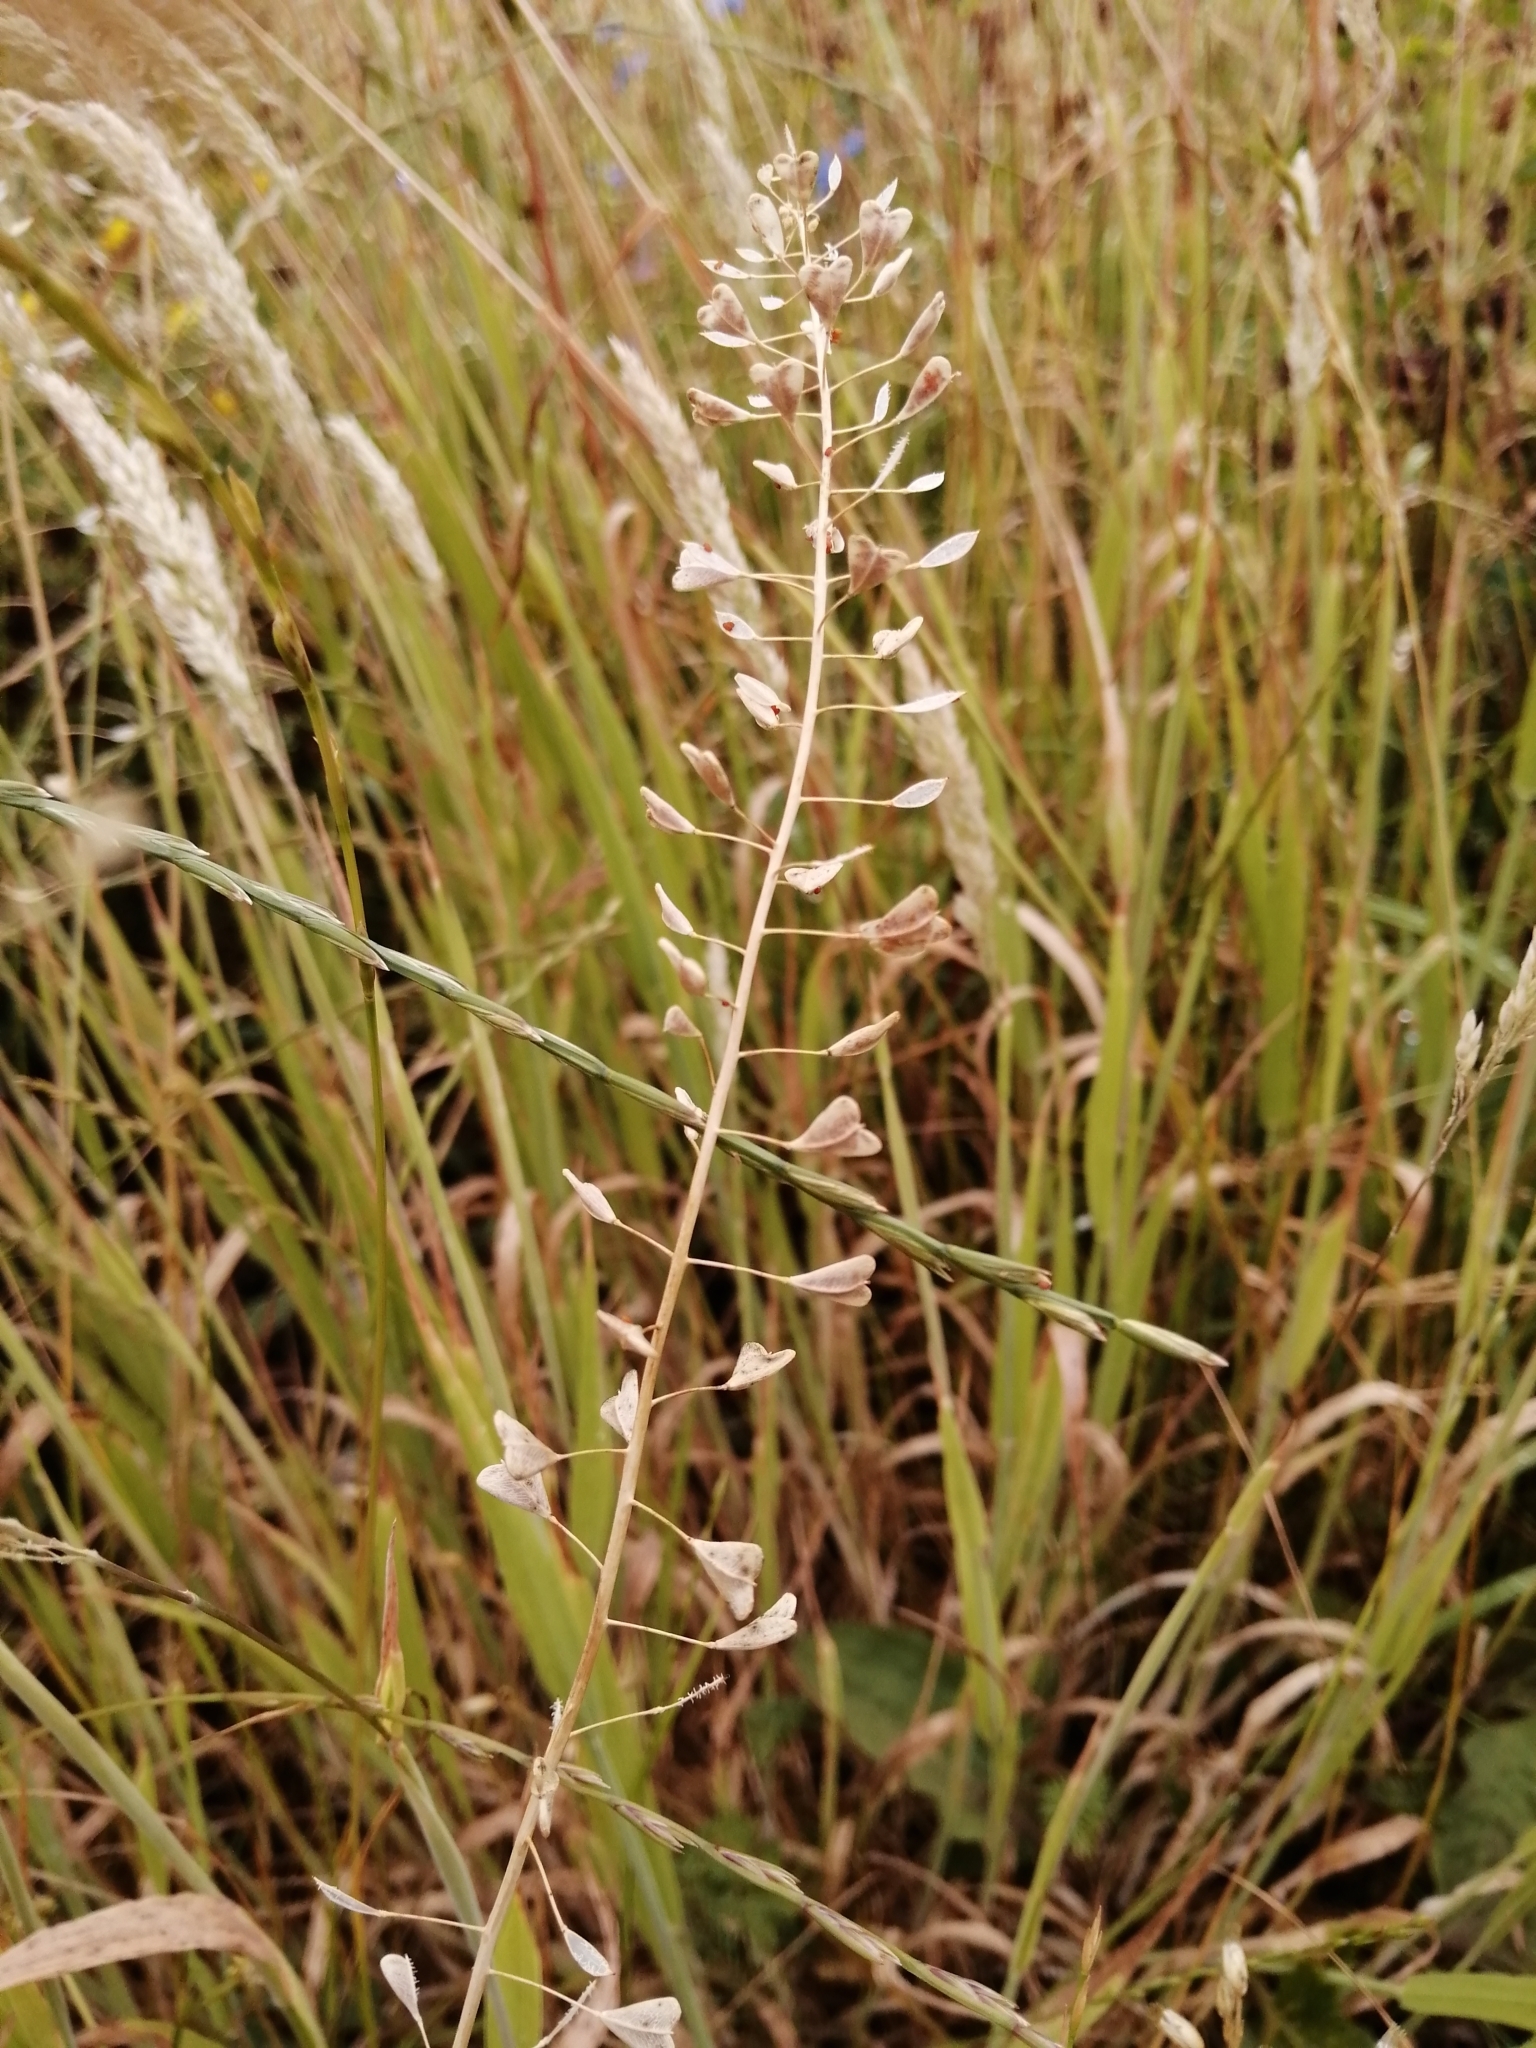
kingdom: Plantae
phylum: Tracheophyta
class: Magnoliopsida
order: Brassicales
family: Brassicaceae
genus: Capsella
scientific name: Capsella bursa-pastoris
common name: Shepherd's purse
